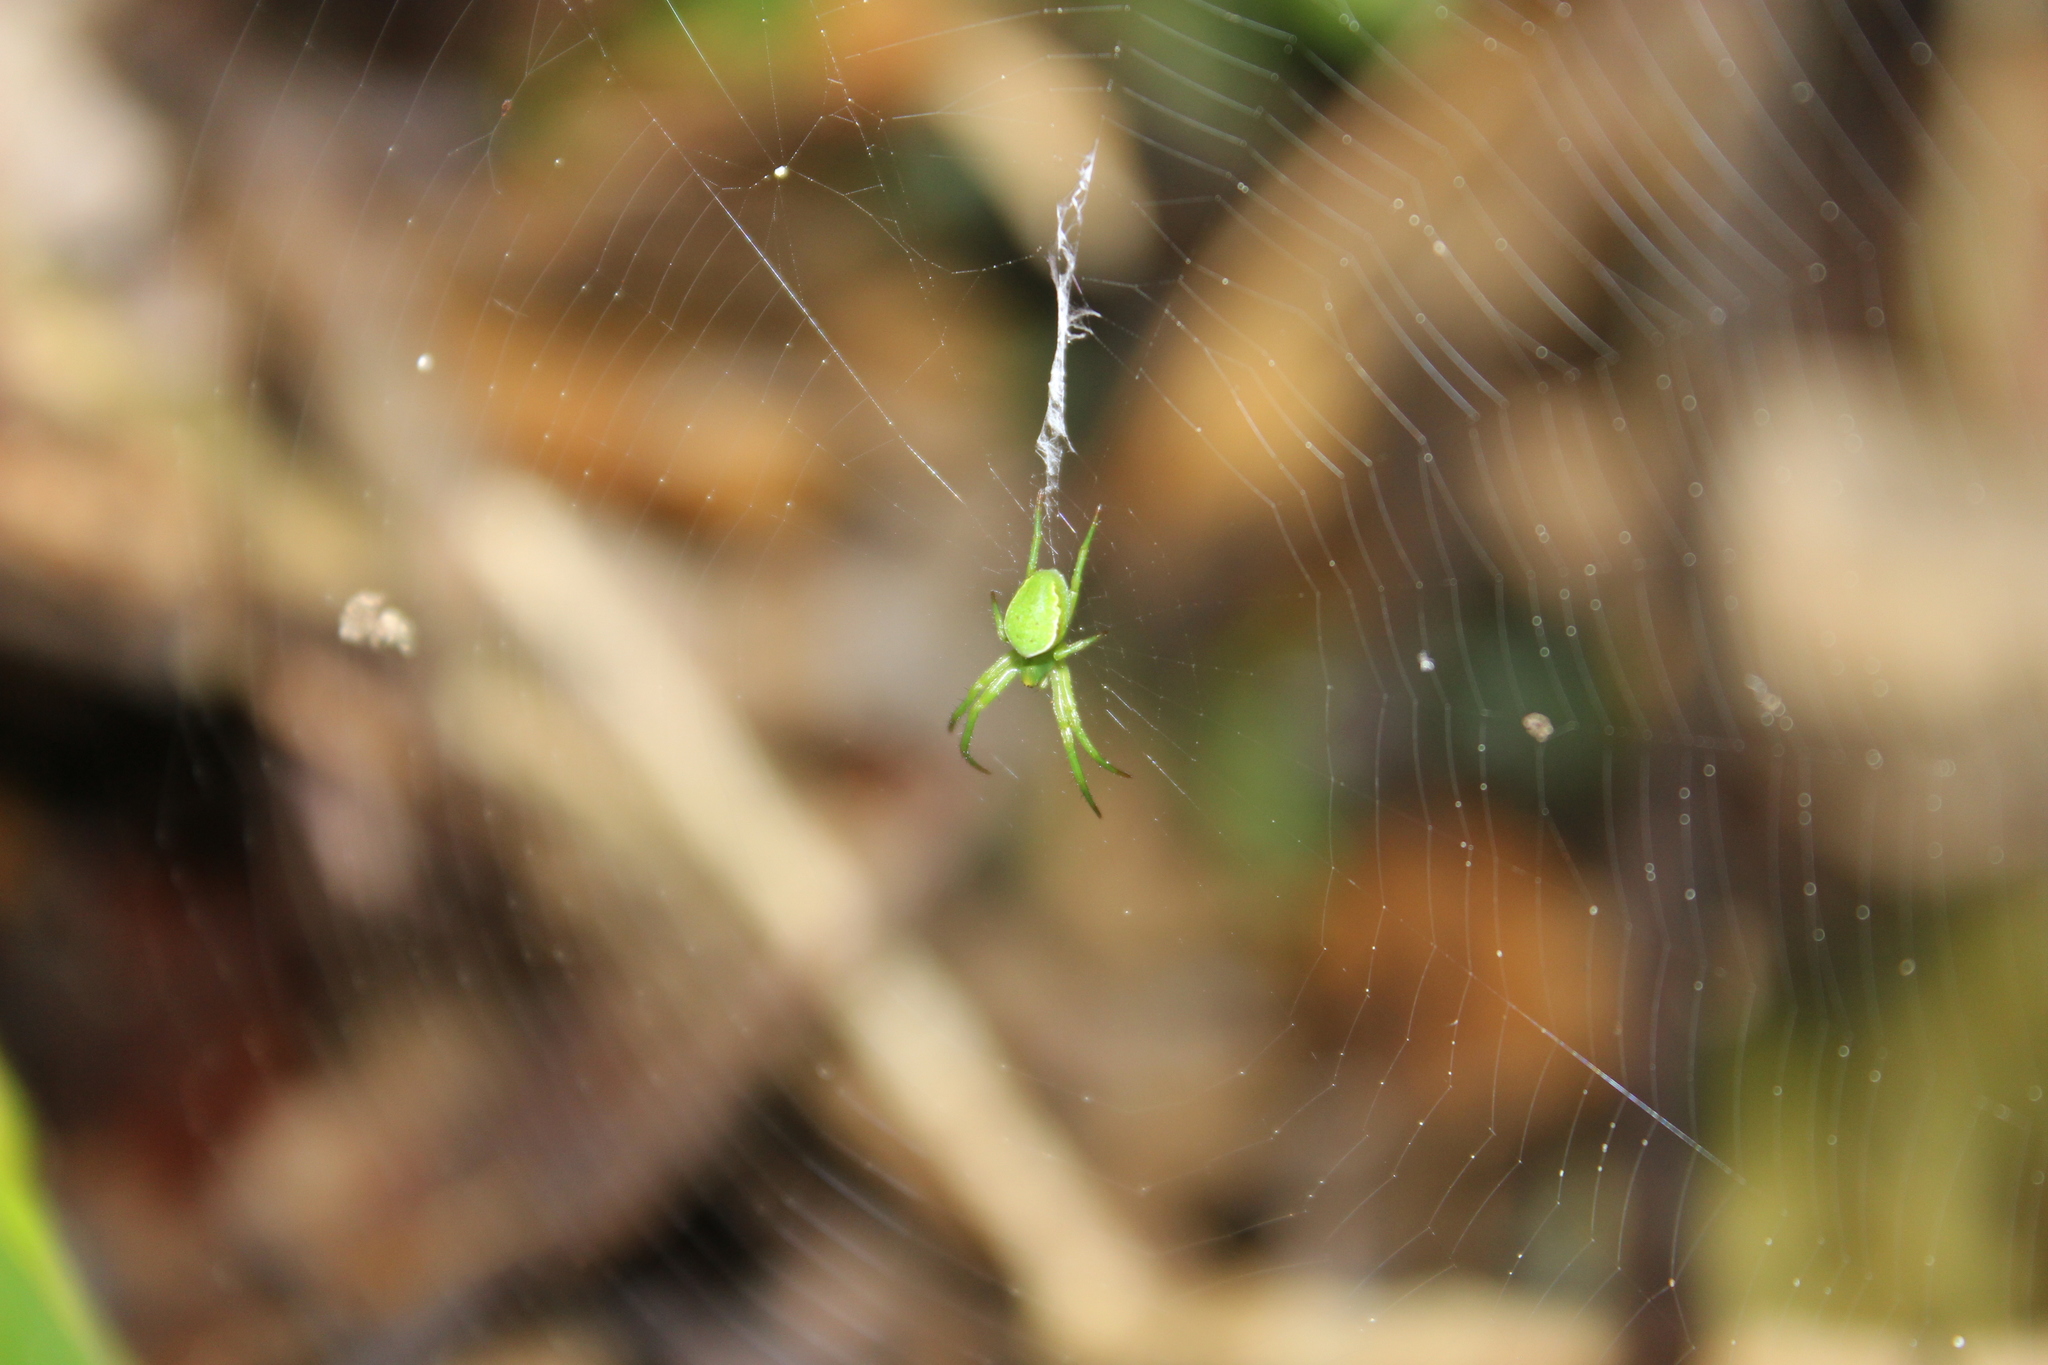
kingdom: Animalia
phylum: Arthropoda
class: Arachnida
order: Araneae
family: Araneidae
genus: Colaranea
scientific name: Colaranea viriditas
